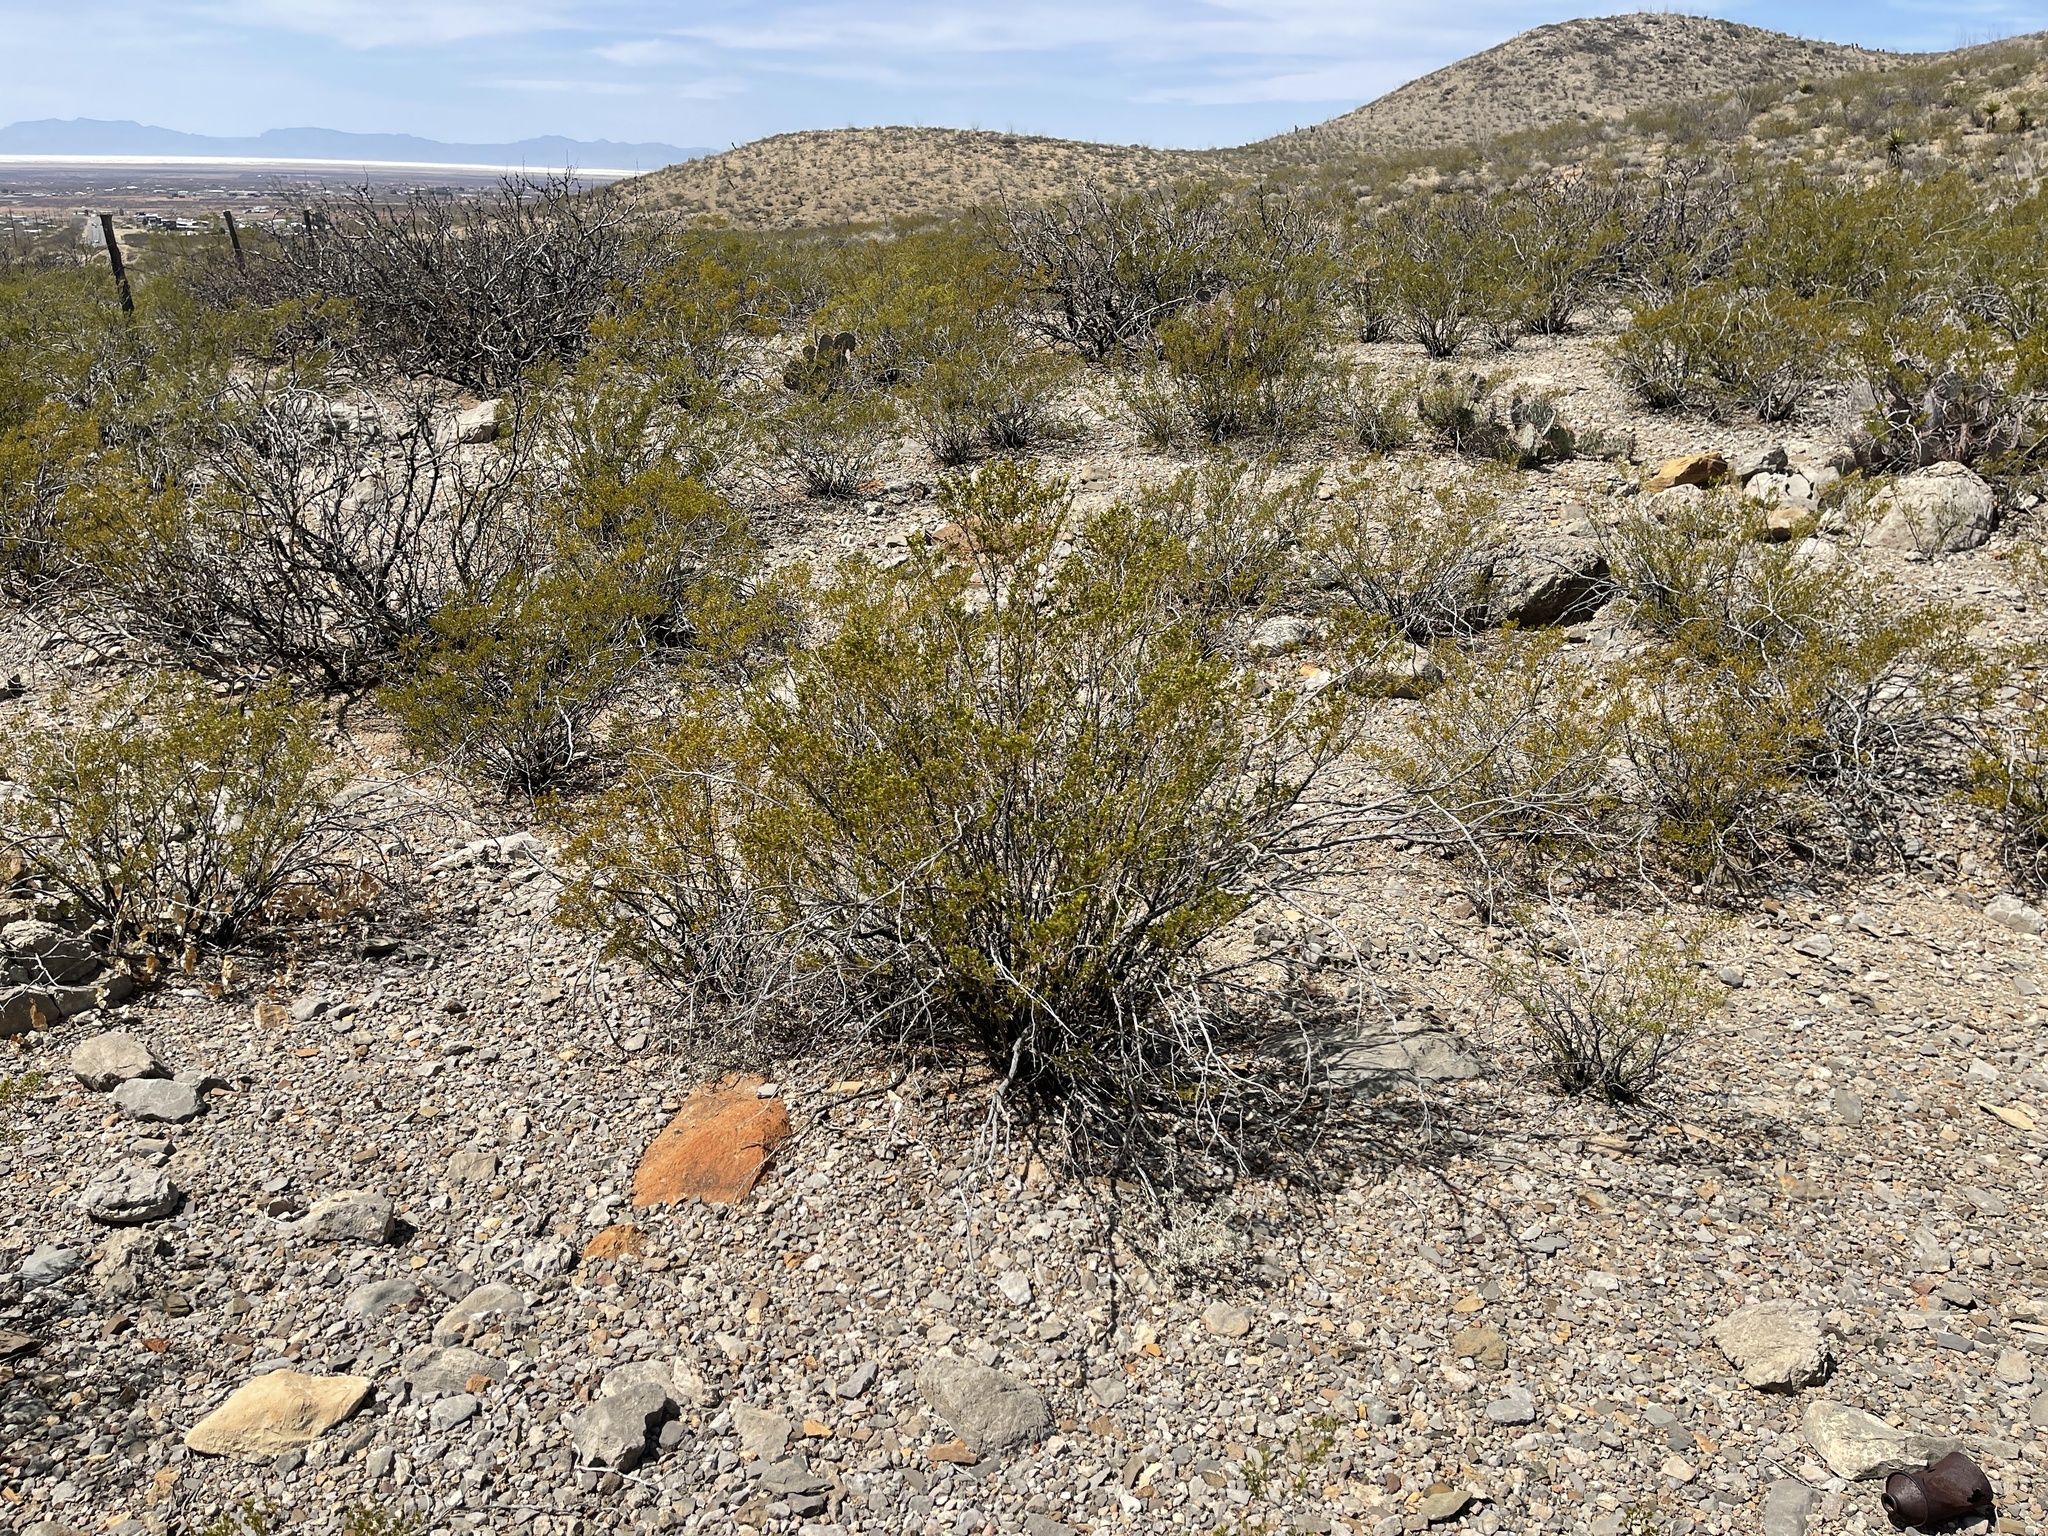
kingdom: Plantae
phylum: Tracheophyta
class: Magnoliopsida
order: Zygophyllales
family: Zygophyllaceae
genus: Larrea
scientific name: Larrea tridentata
